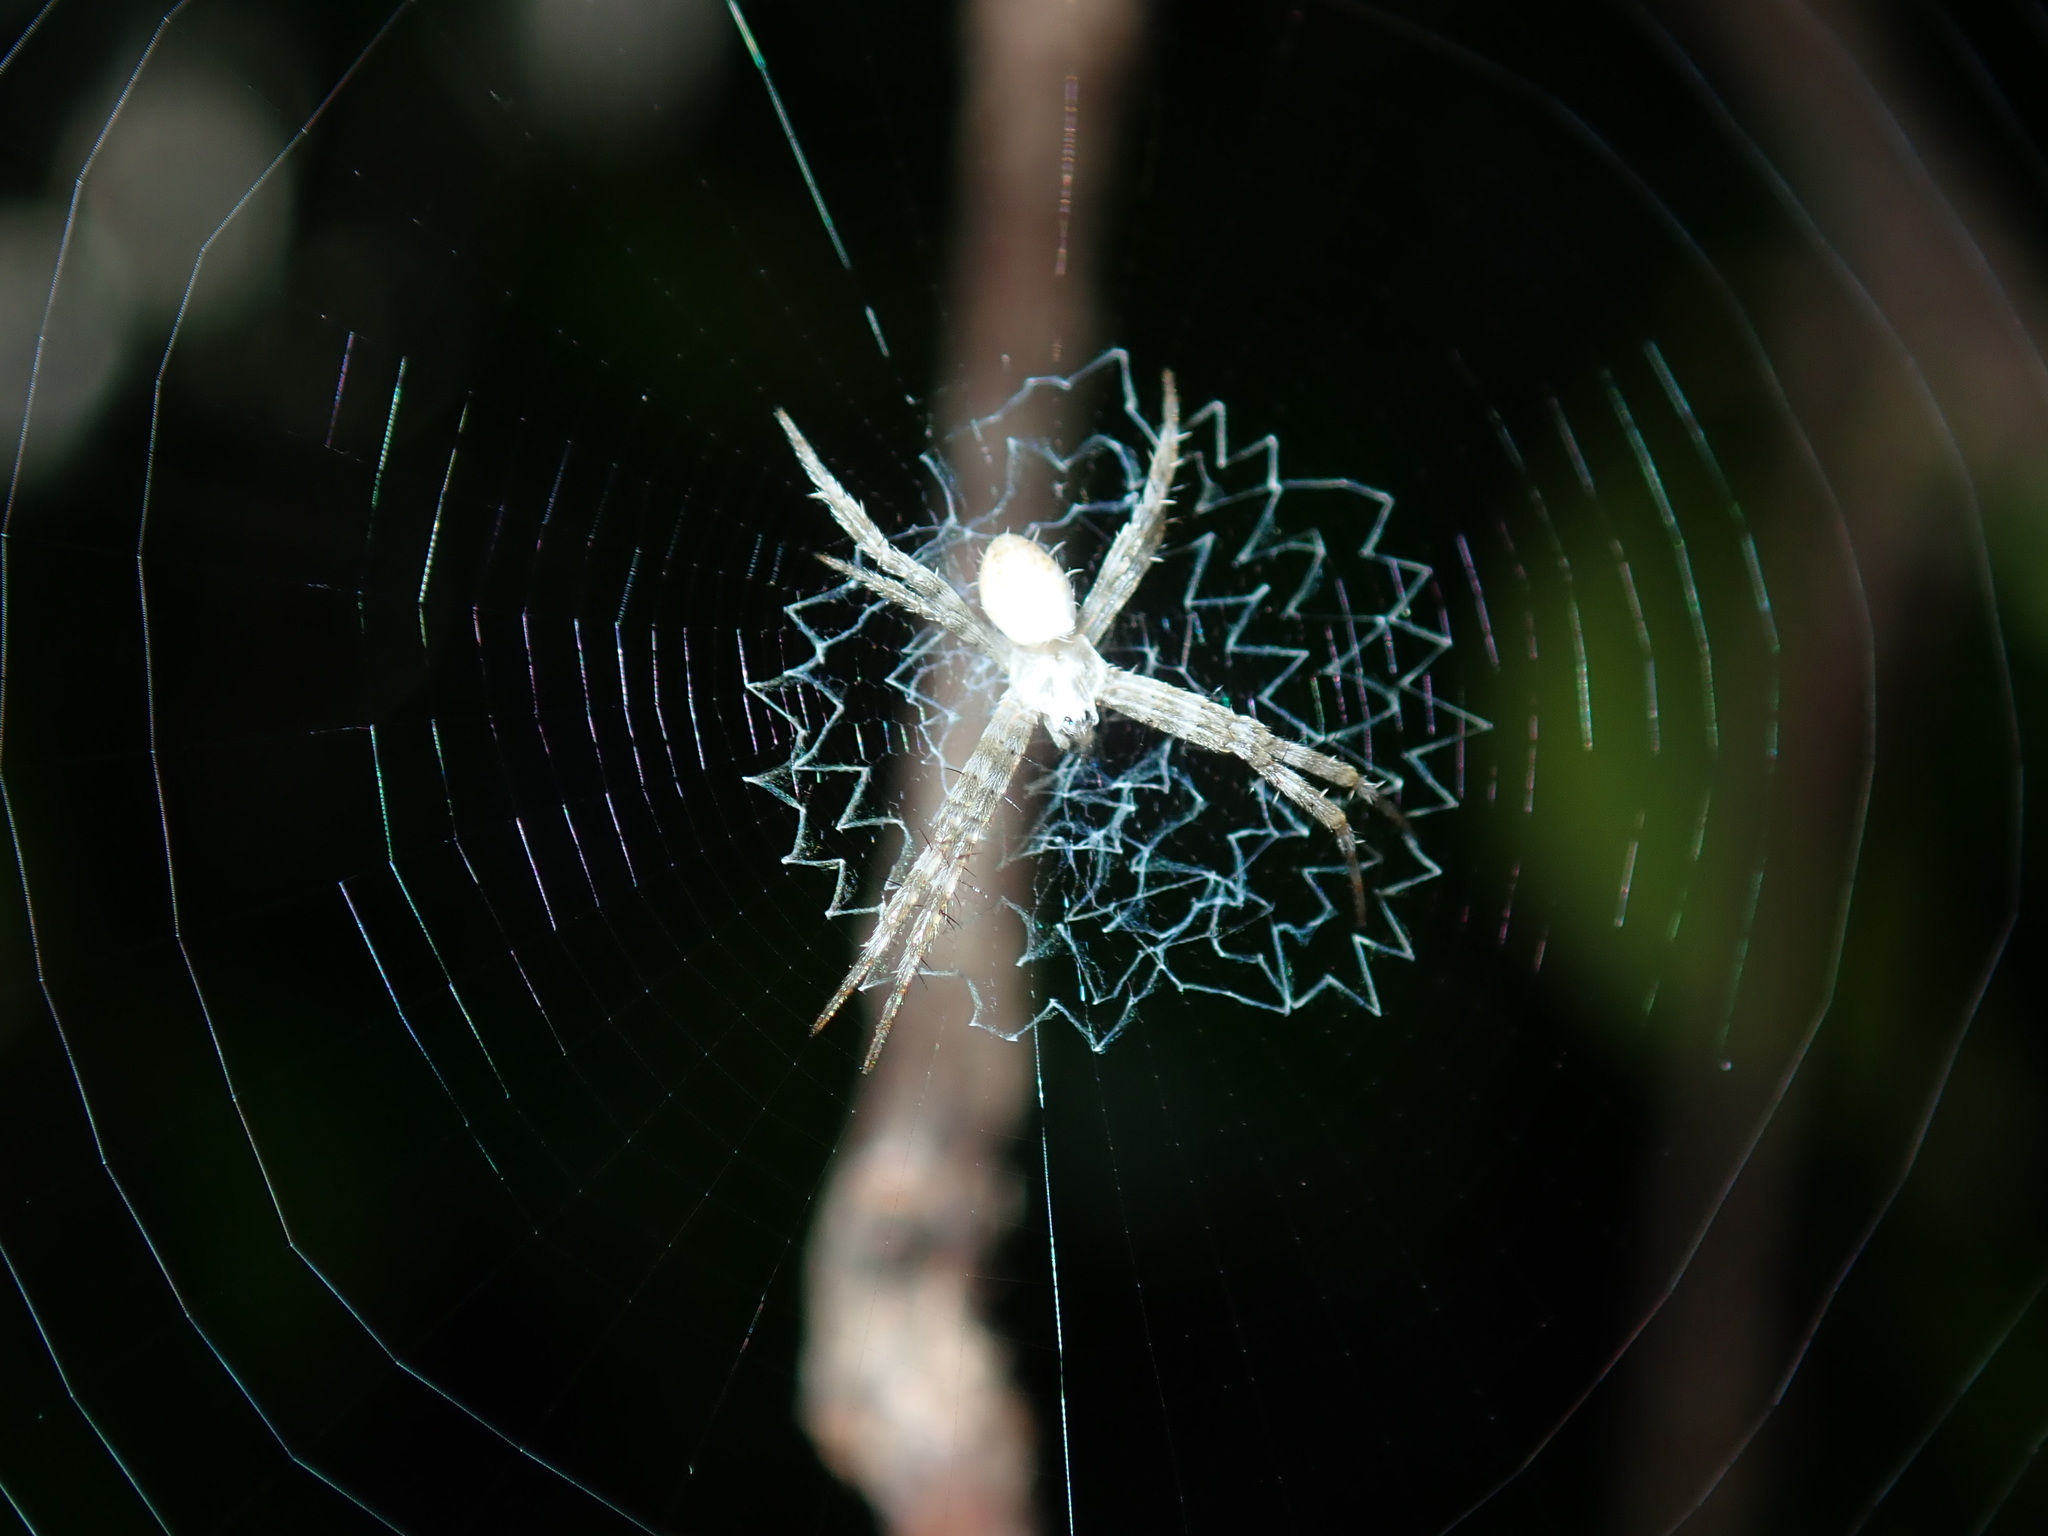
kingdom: Animalia
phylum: Arthropoda
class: Arachnida
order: Araneae
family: Araneidae
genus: Argiope
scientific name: Argiope keyserlingi
